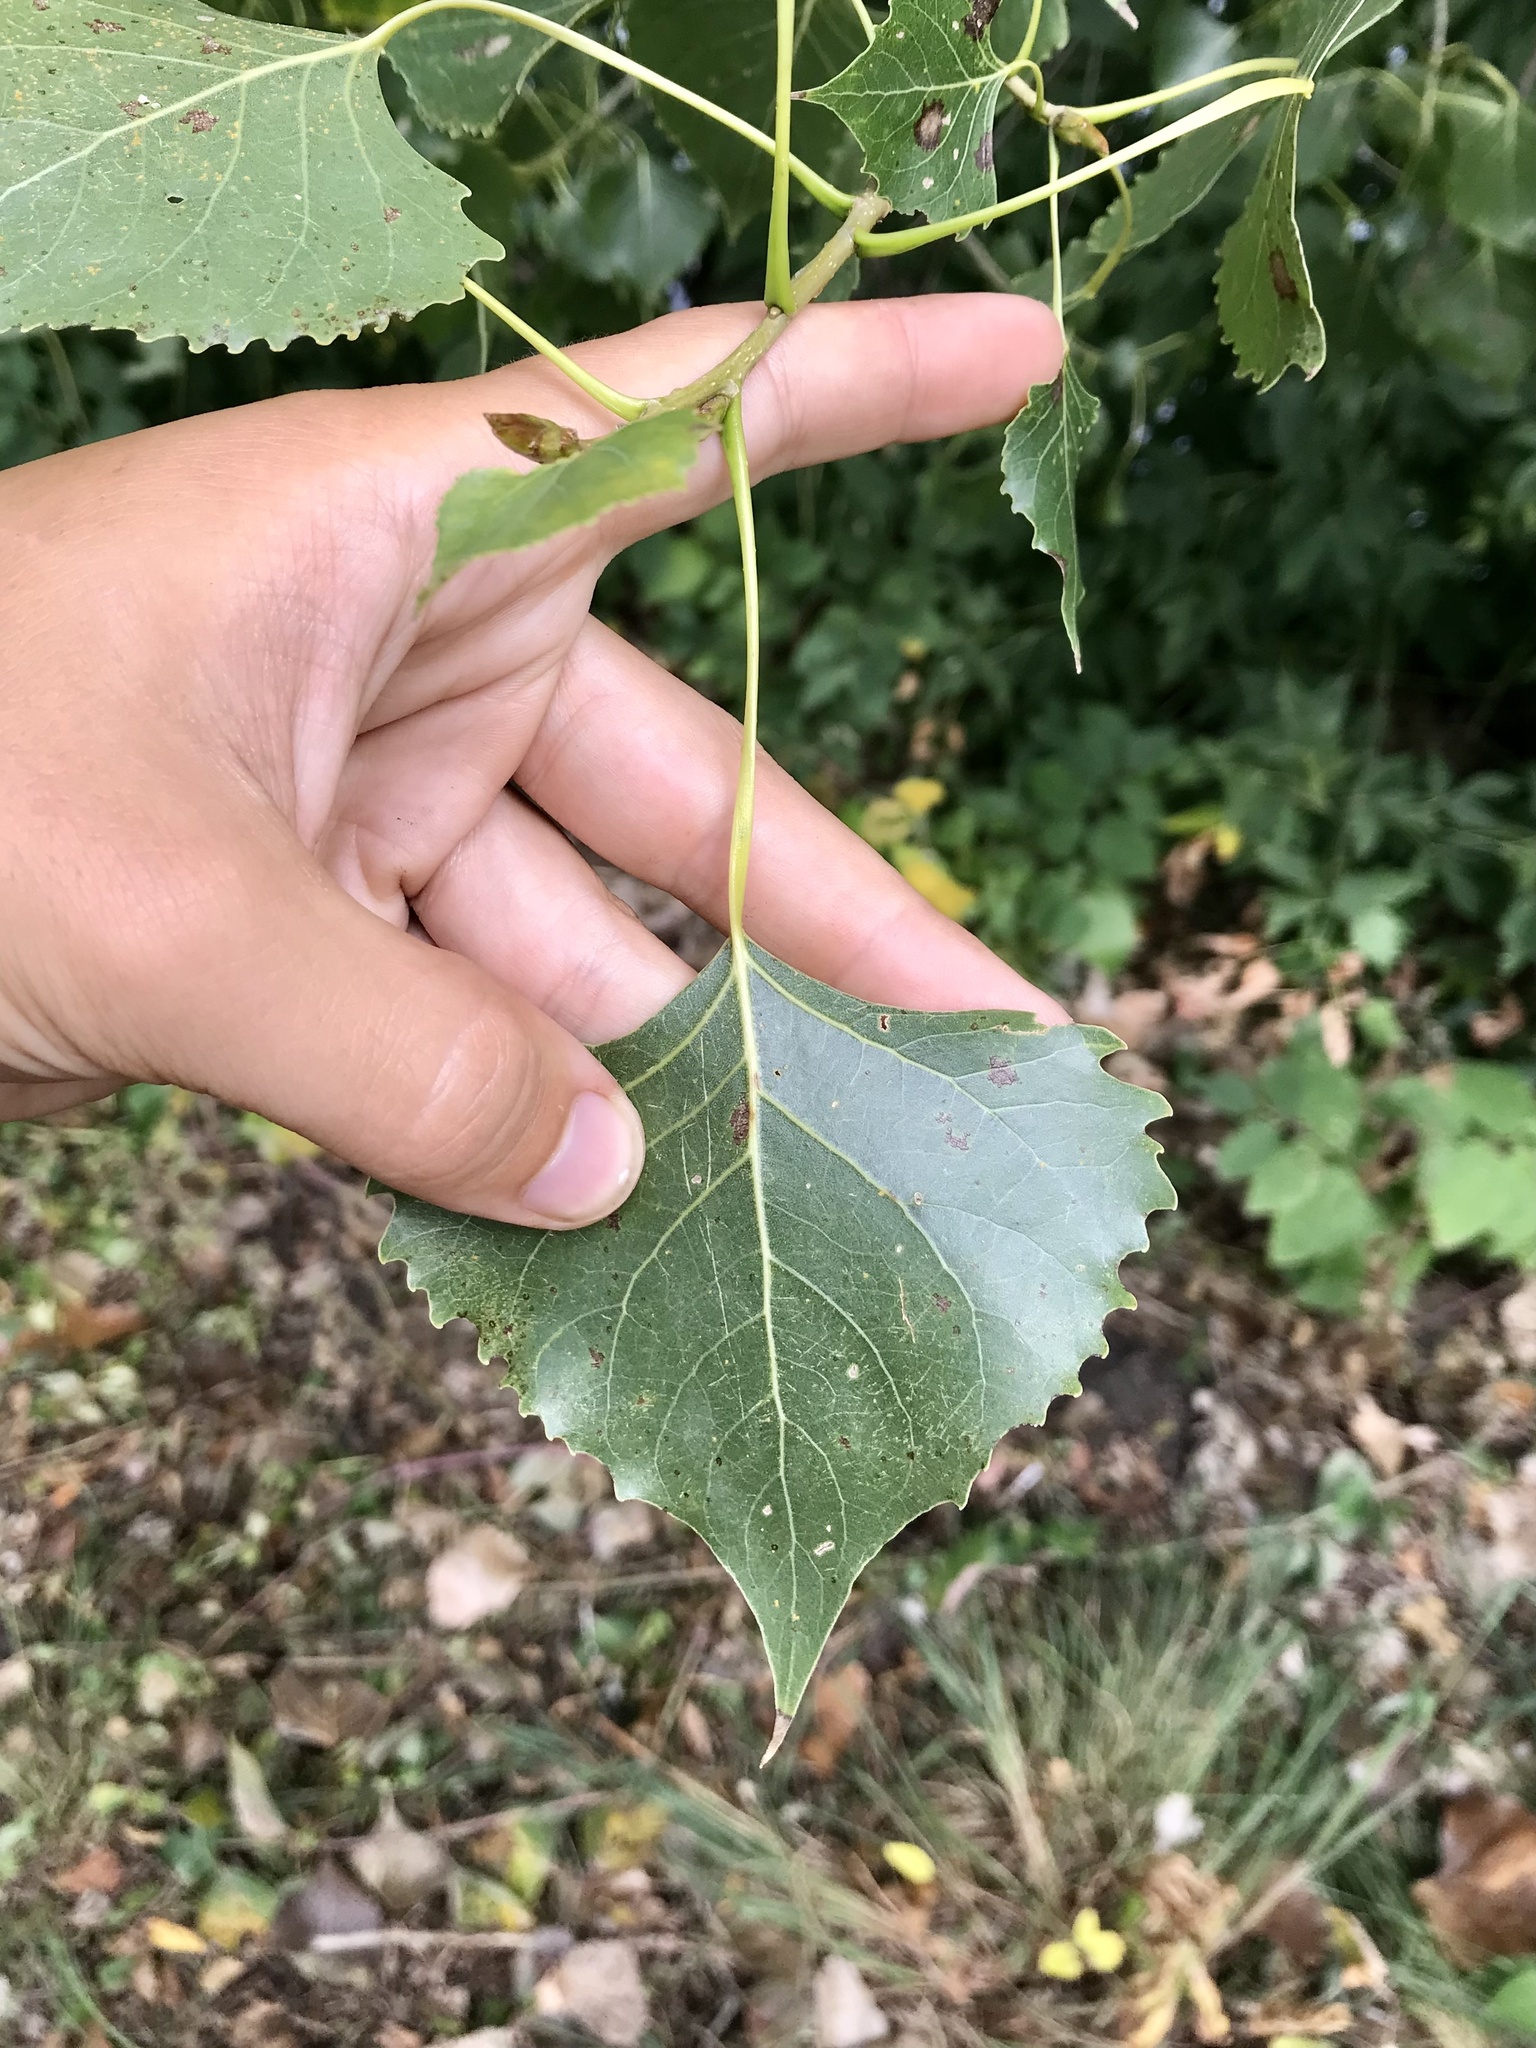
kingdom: Plantae
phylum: Tracheophyta
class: Magnoliopsida
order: Malpighiales
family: Salicaceae
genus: Populus
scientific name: Populus nigra
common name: Black poplar
